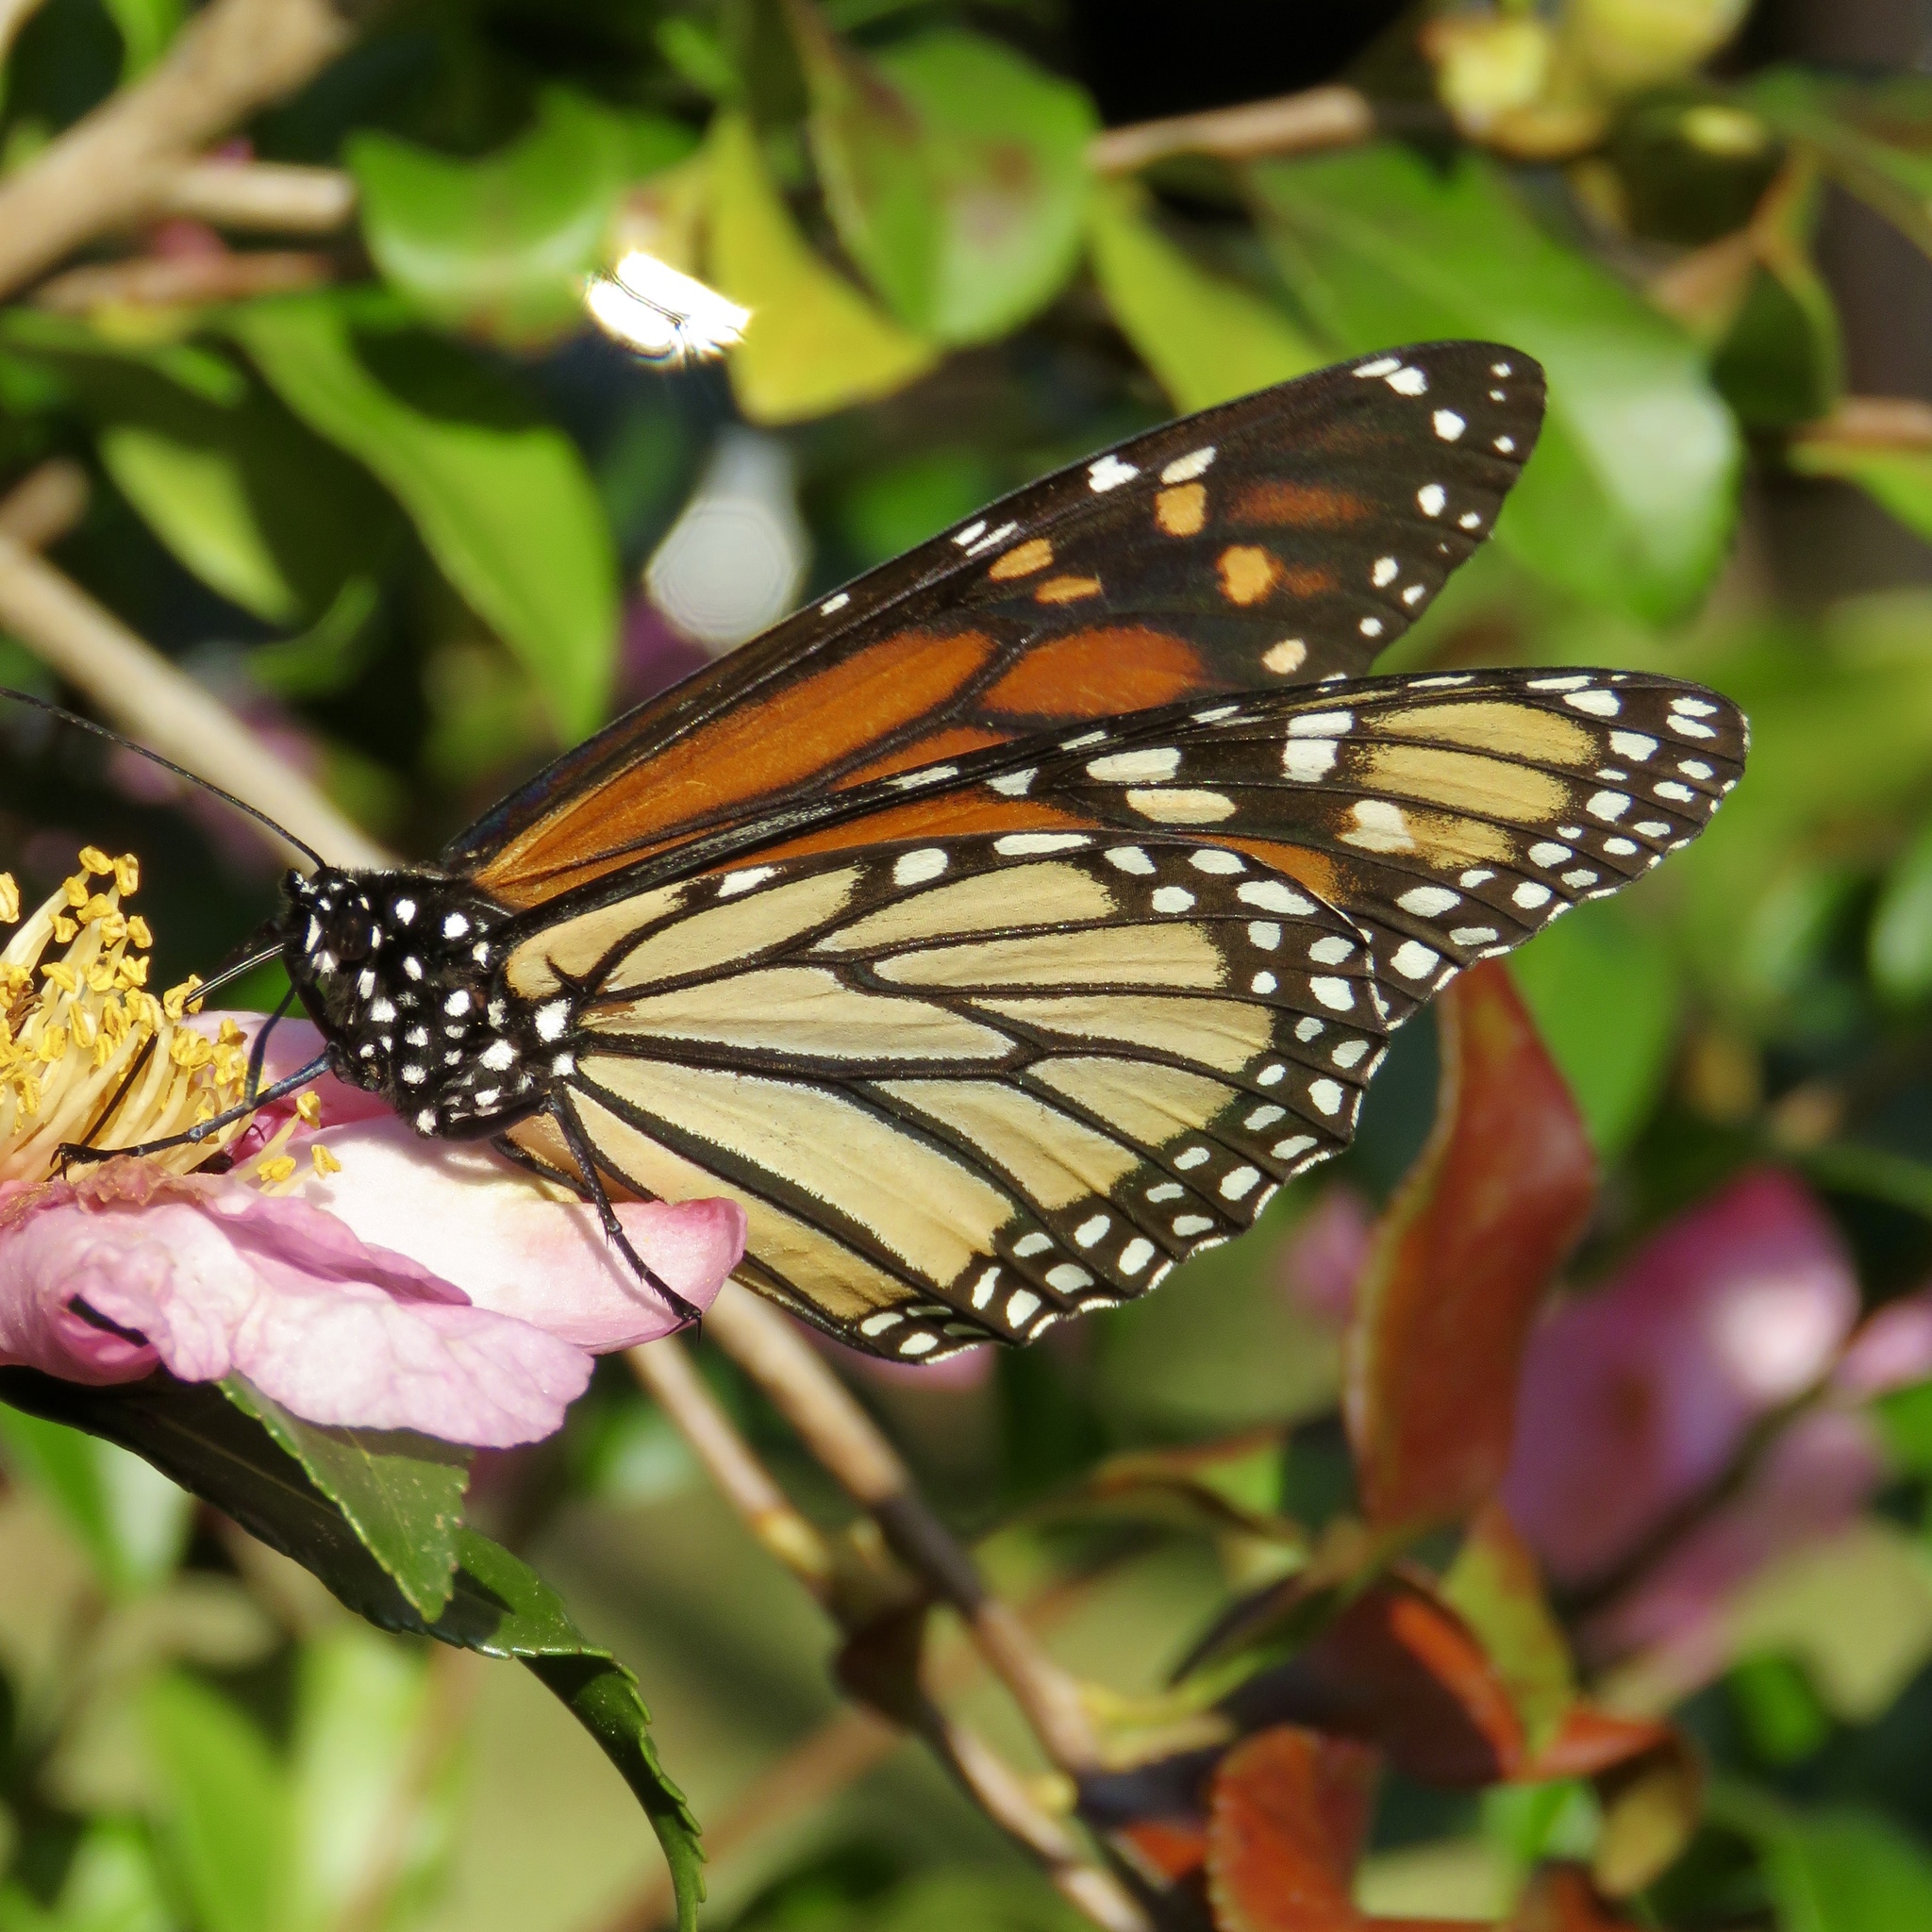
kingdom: Animalia
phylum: Arthropoda
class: Insecta
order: Lepidoptera
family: Nymphalidae
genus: Danaus
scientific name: Danaus plexippus
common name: Monarch
